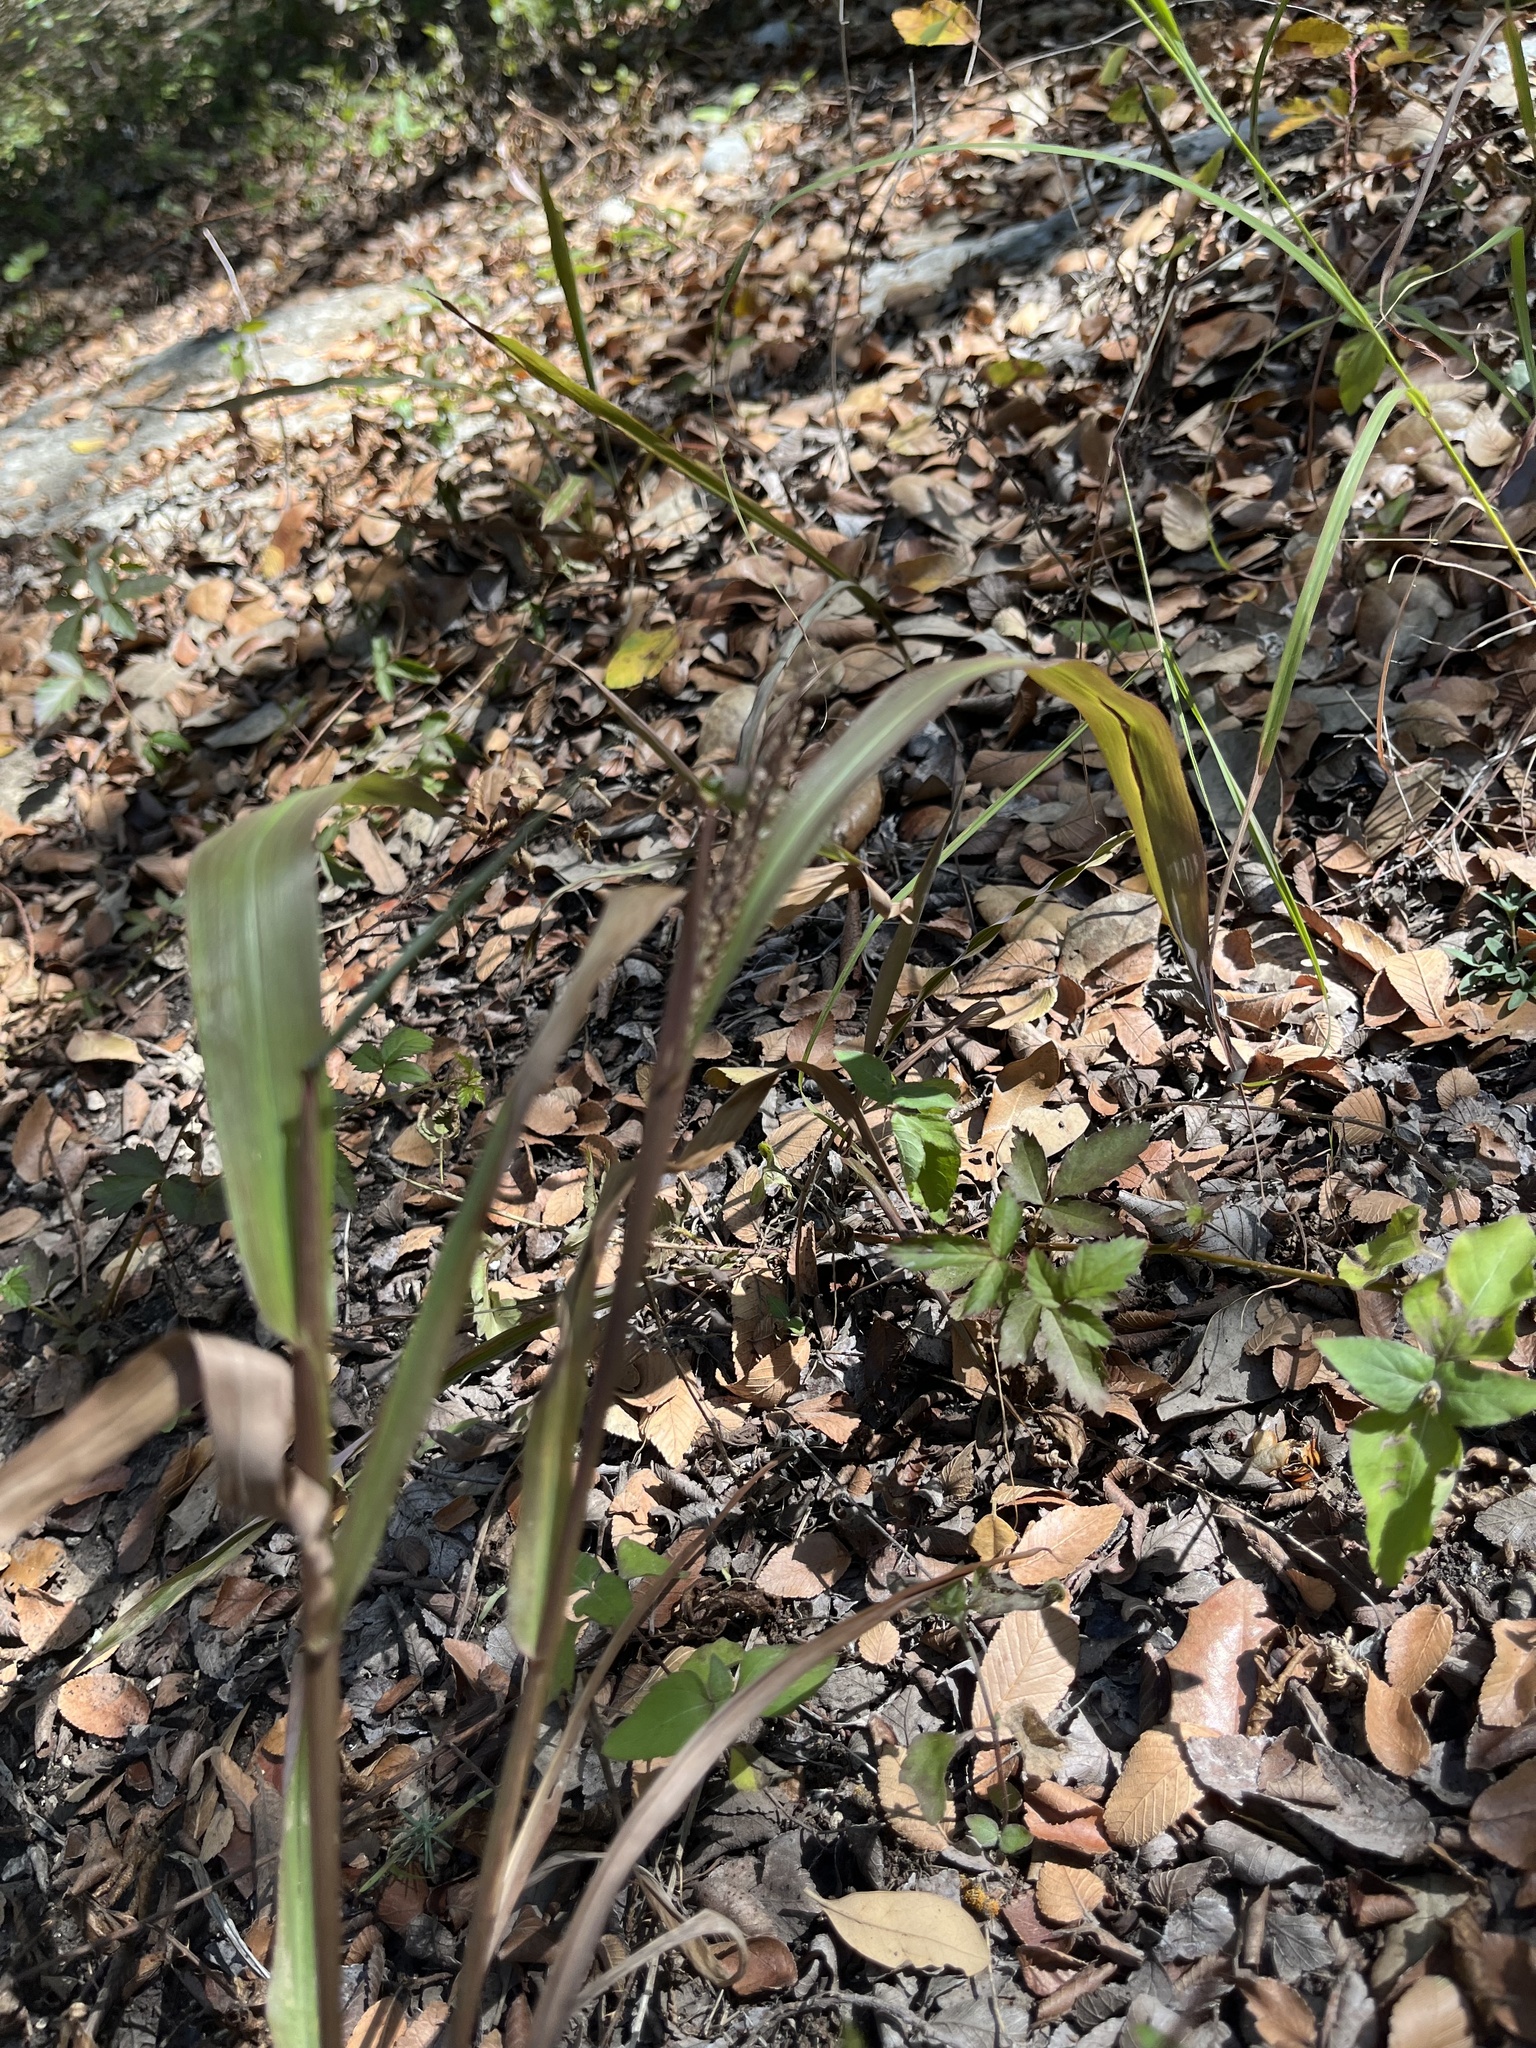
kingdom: Plantae
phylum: Tracheophyta
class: Liliopsida
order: Poales
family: Poaceae
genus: Paspalum
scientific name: Paspalum langei
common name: Rusty-seed paspalum
